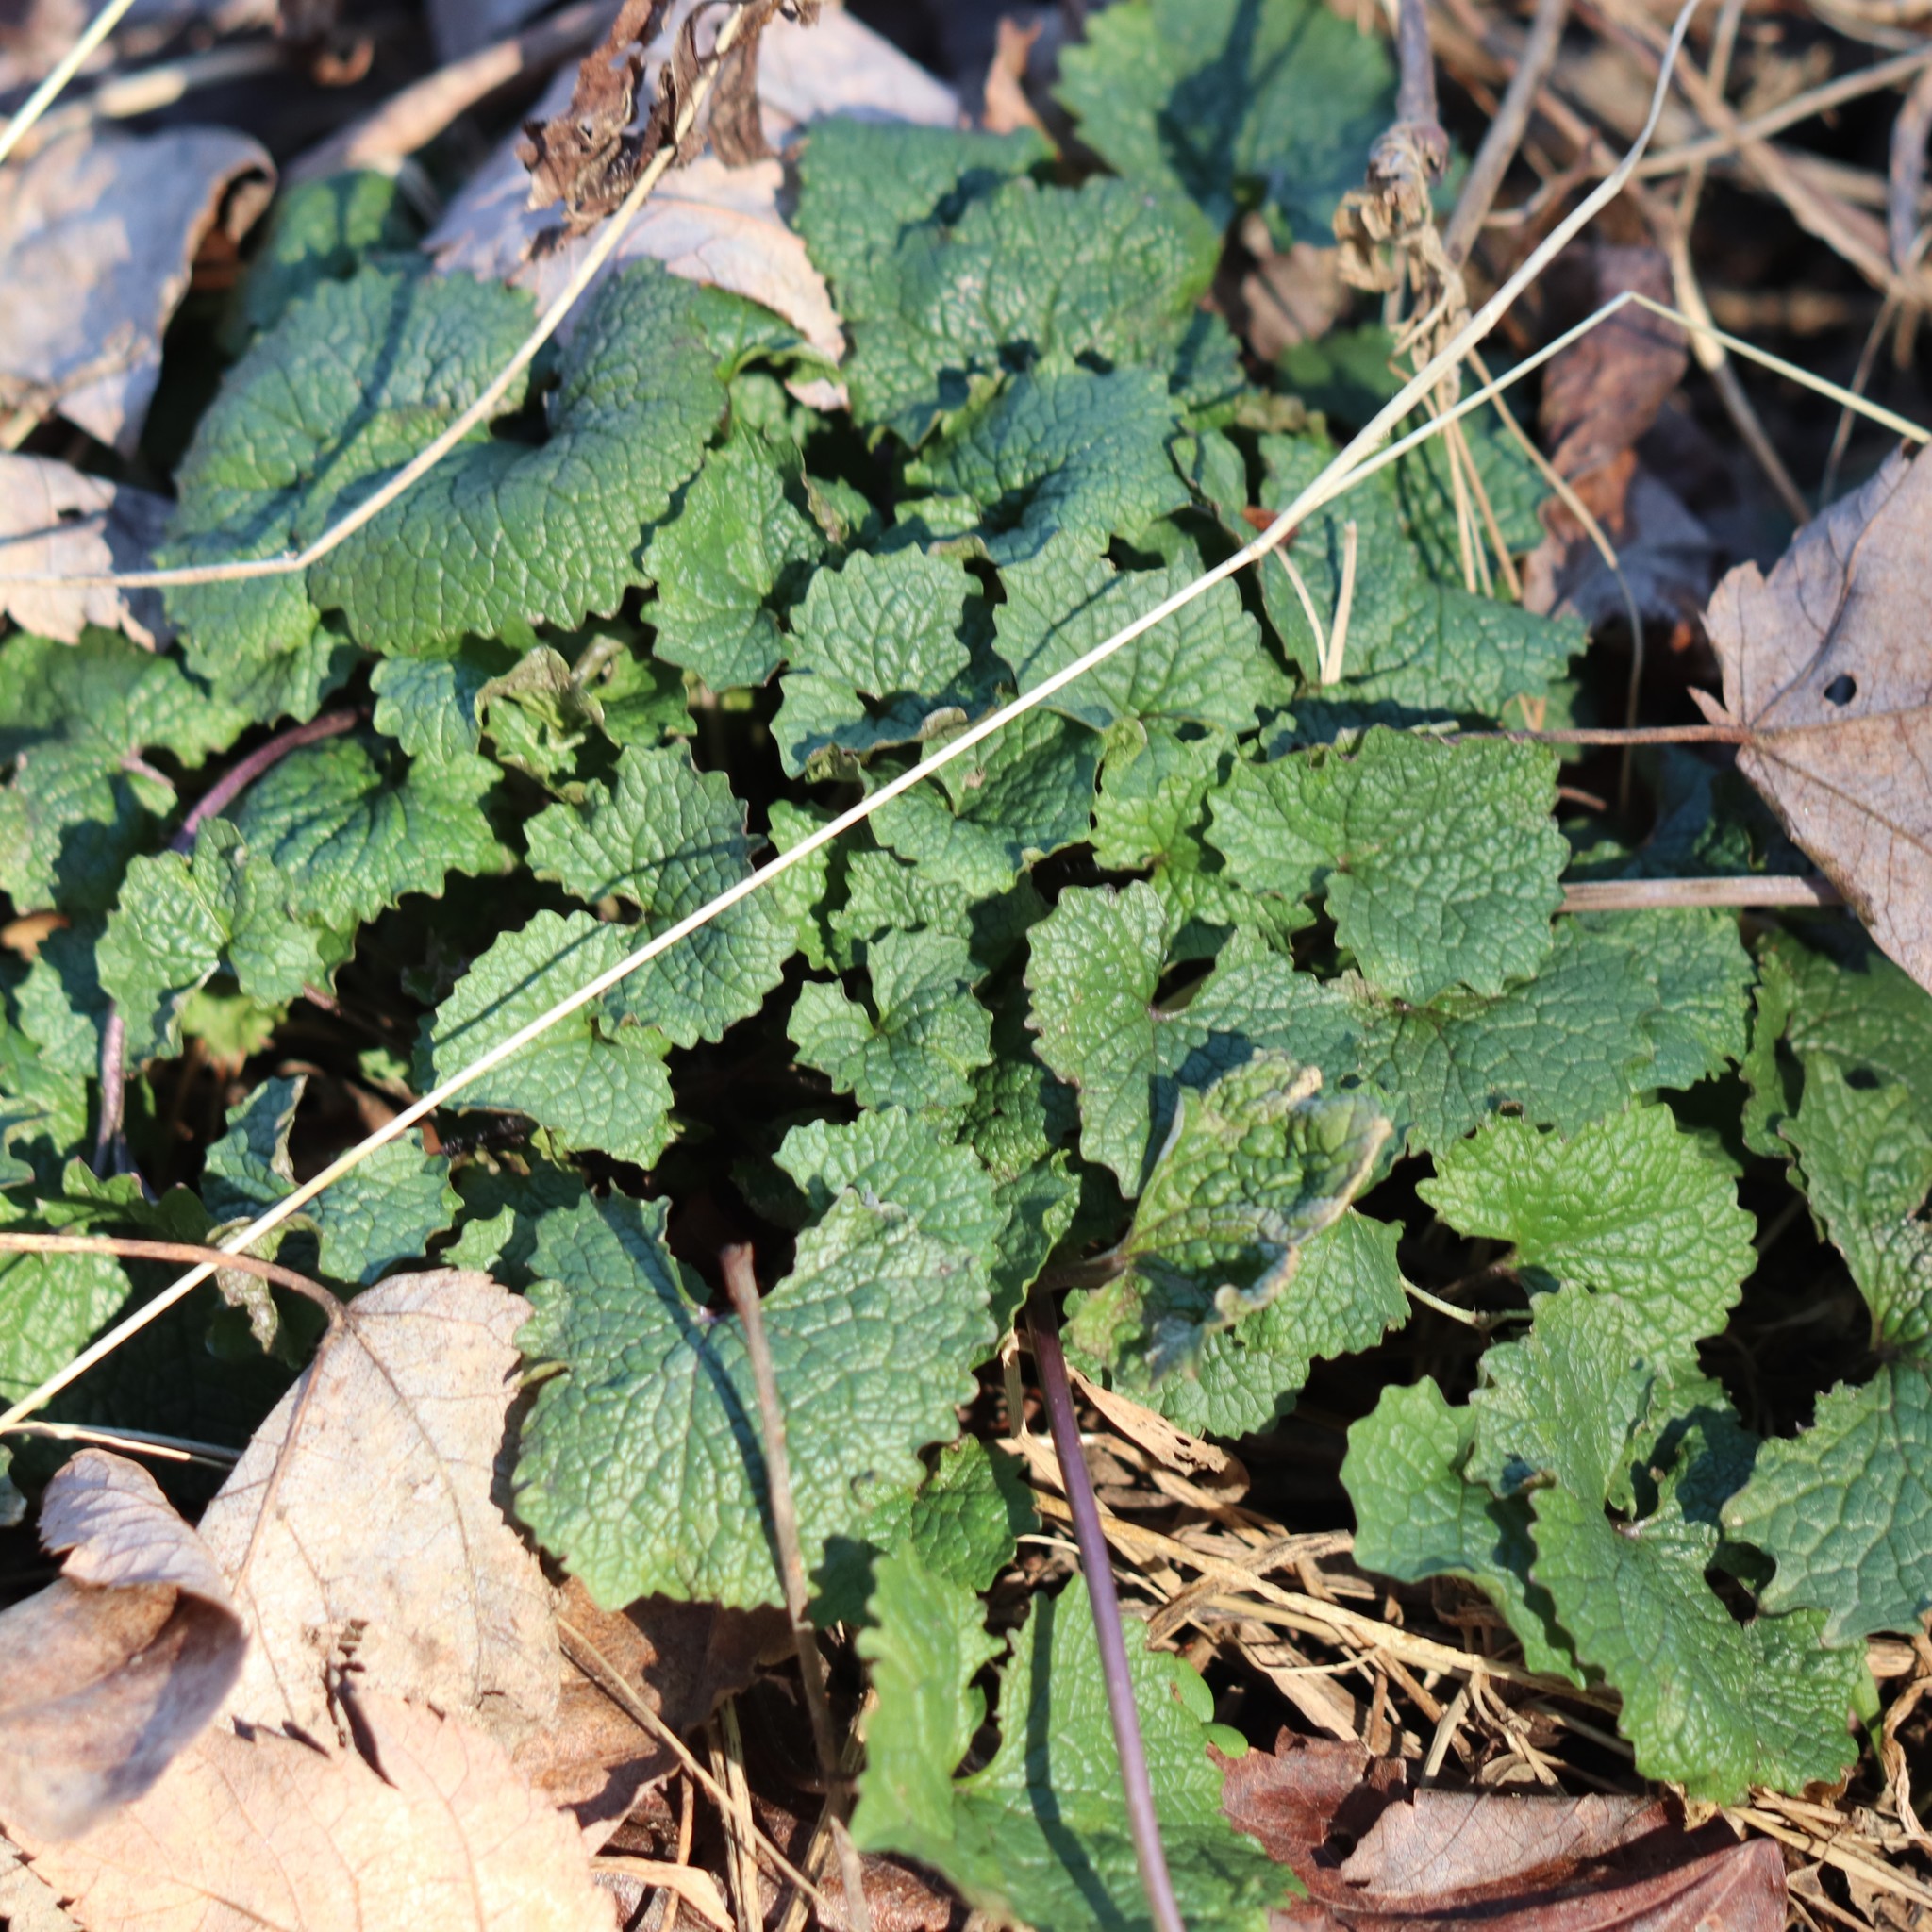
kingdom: Plantae
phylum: Tracheophyta
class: Magnoliopsida
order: Brassicales
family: Brassicaceae
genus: Alliaria
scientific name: Alliaria petiolata
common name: Garlic mustard
